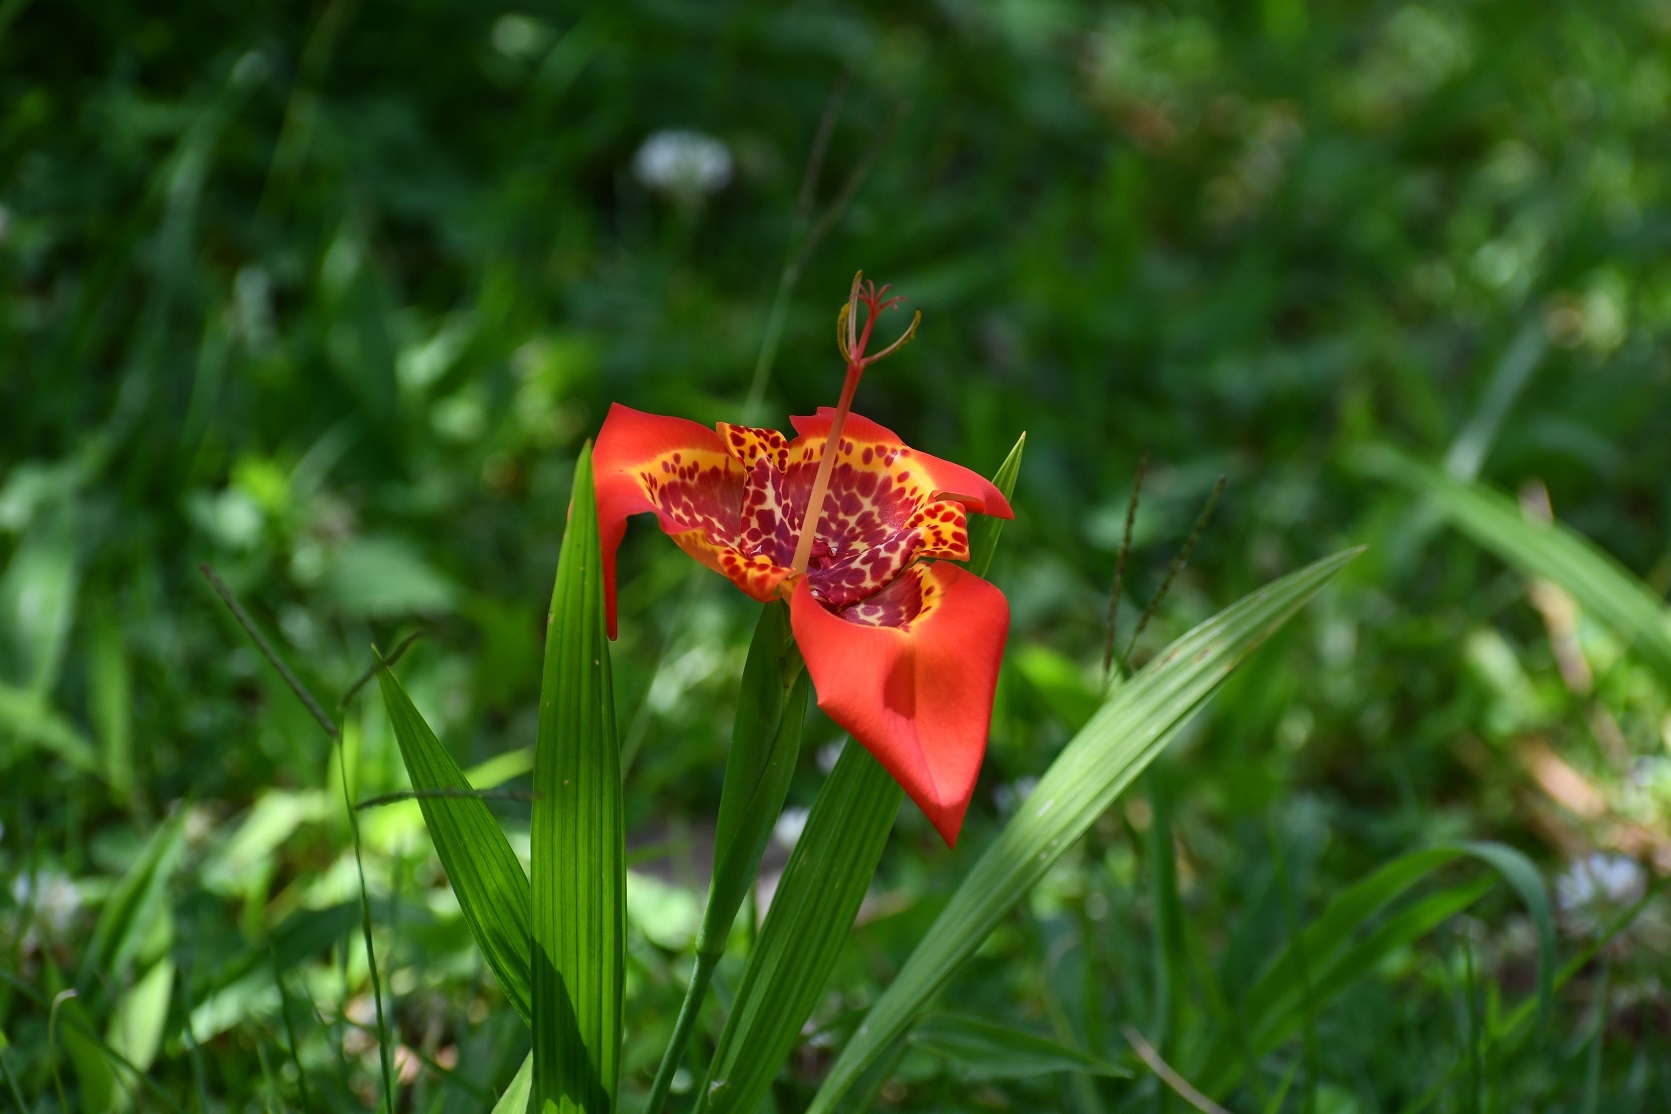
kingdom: Plantae
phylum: Tracheophyta
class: Liliopsida
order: Asparagales
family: Iridaceae
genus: Tigridia
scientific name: Tigridia pavonia
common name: Peacock-flower
